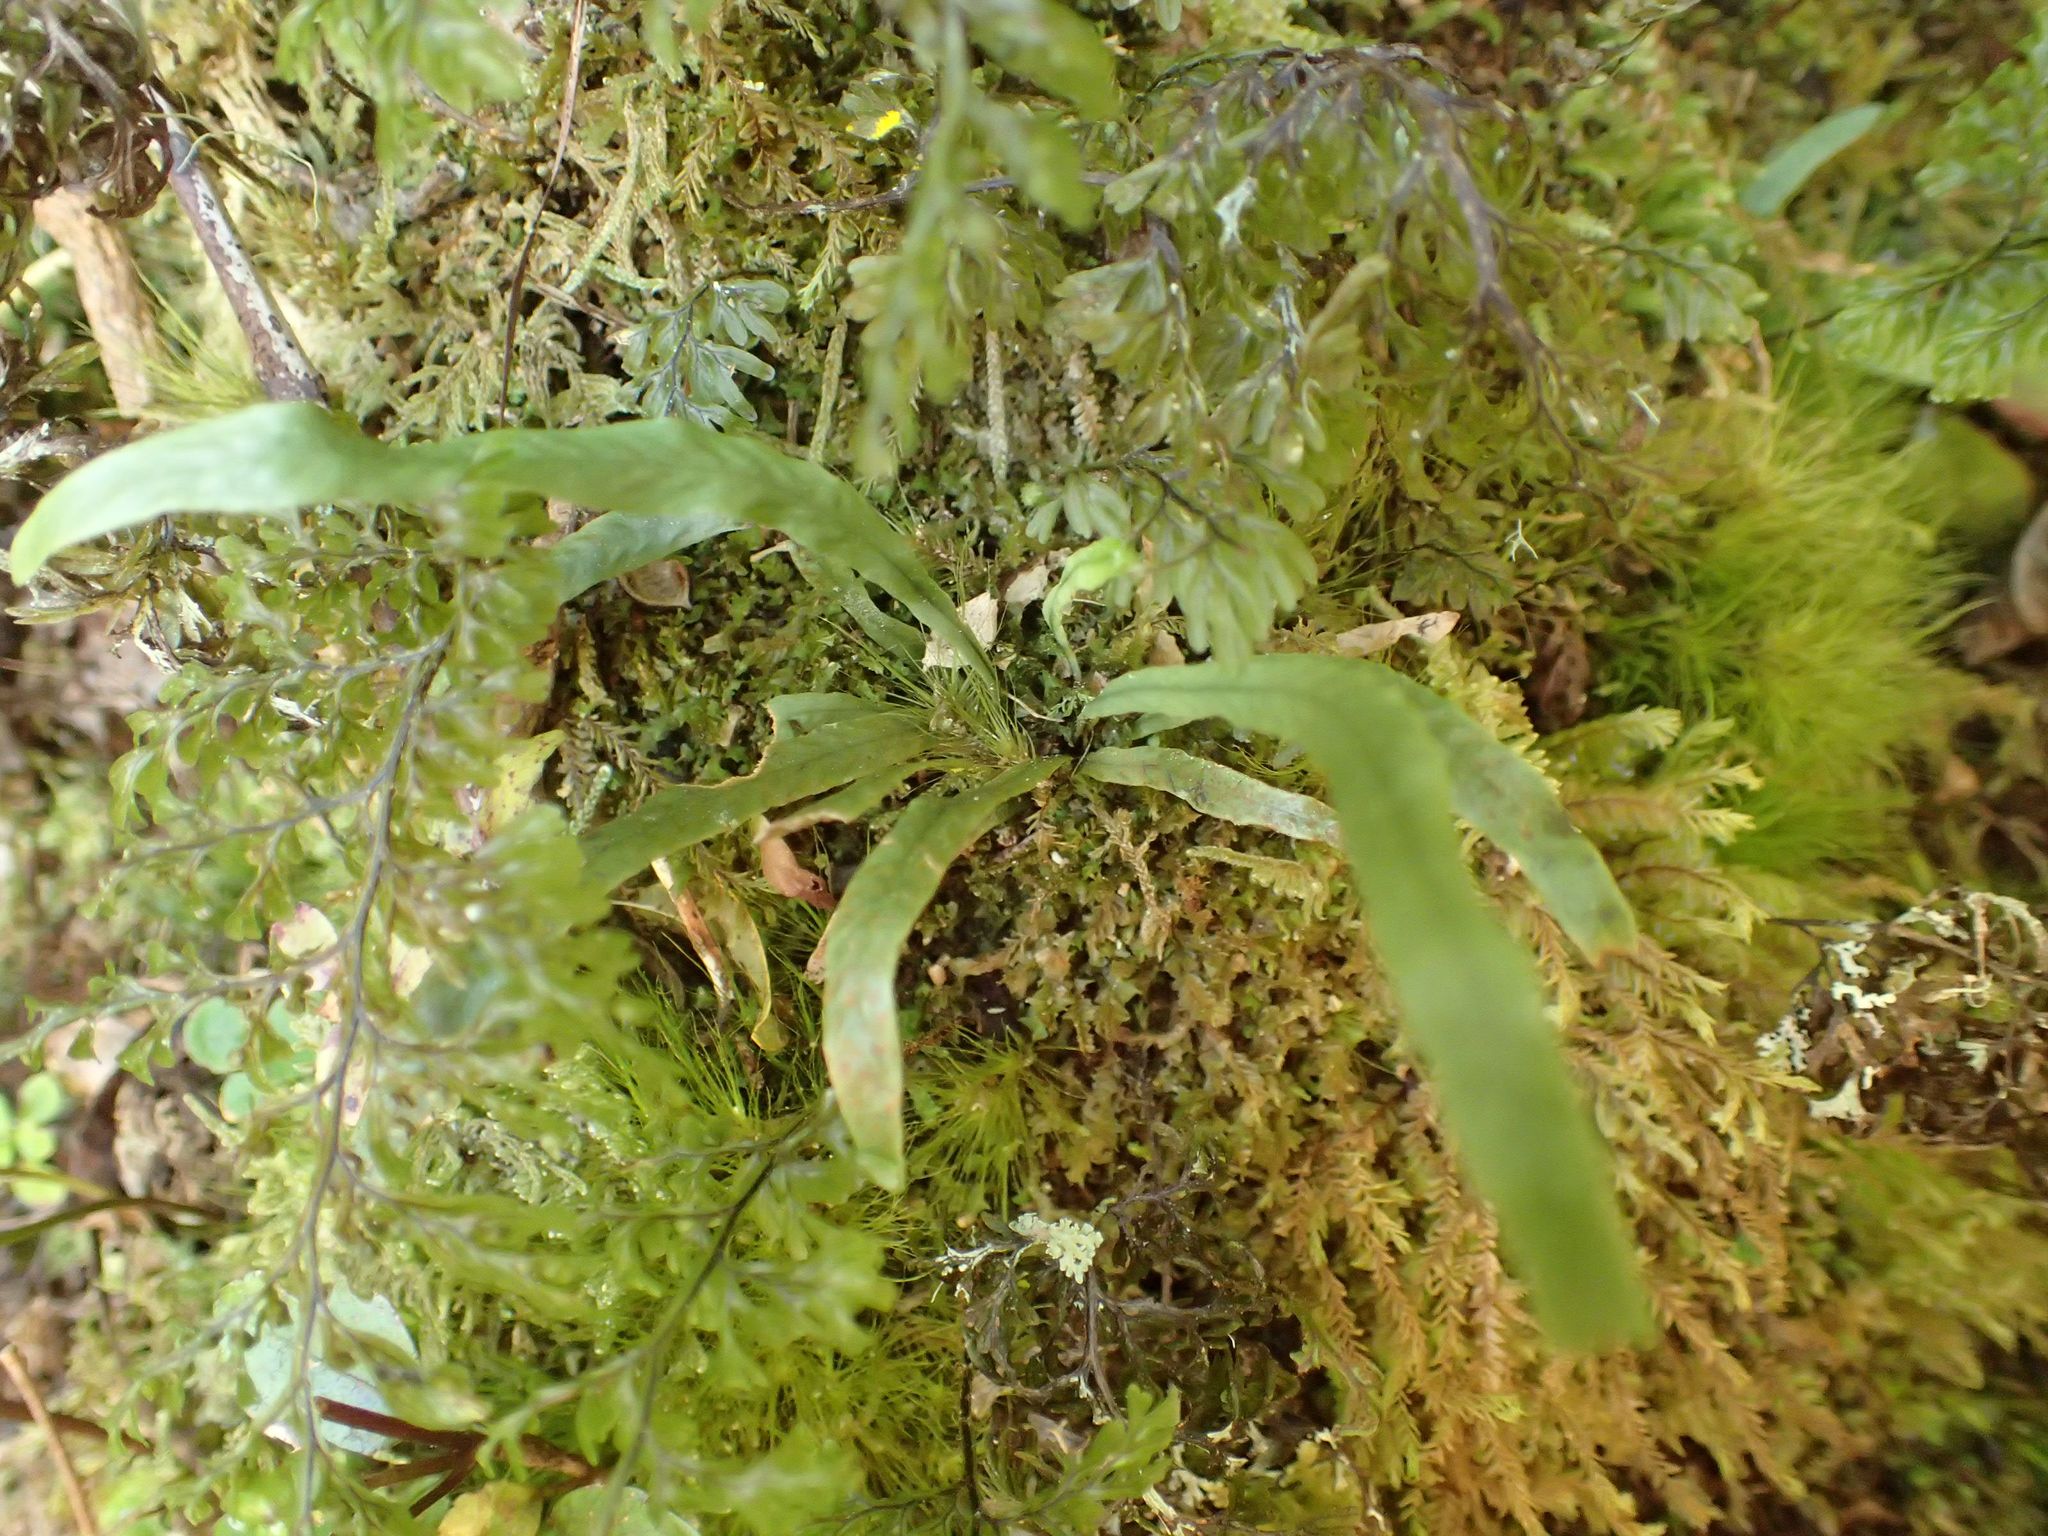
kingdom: Plantae
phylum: Tracheophyta
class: Polypodiopsida
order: Polypodiales
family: Polypodiaceae
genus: Notogrammitis
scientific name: Notogrammitis billardierei
